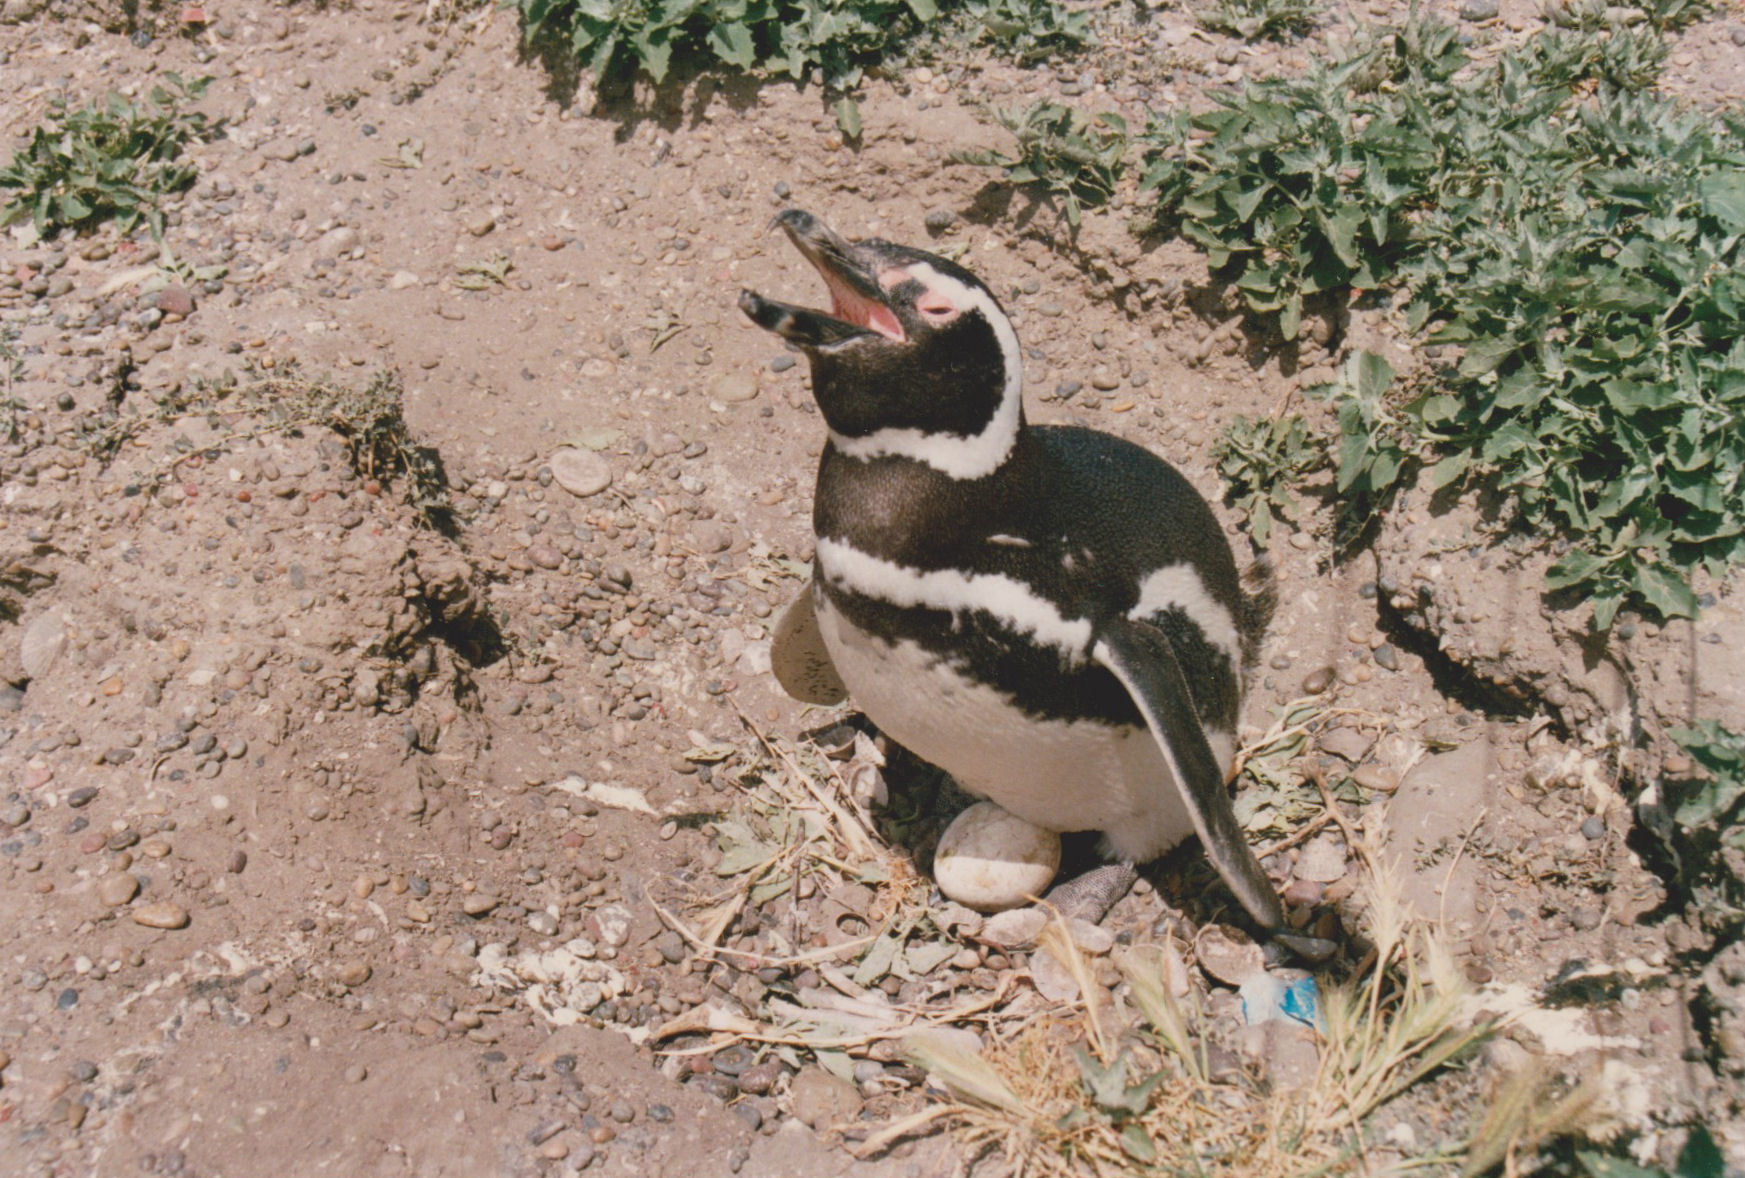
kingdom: Animalia
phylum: Chordata
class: Aves
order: Sphenisciformes
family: Spheniscidae
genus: Spheniscus
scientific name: Spheniscus magellanicus
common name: Magellanic penguin
